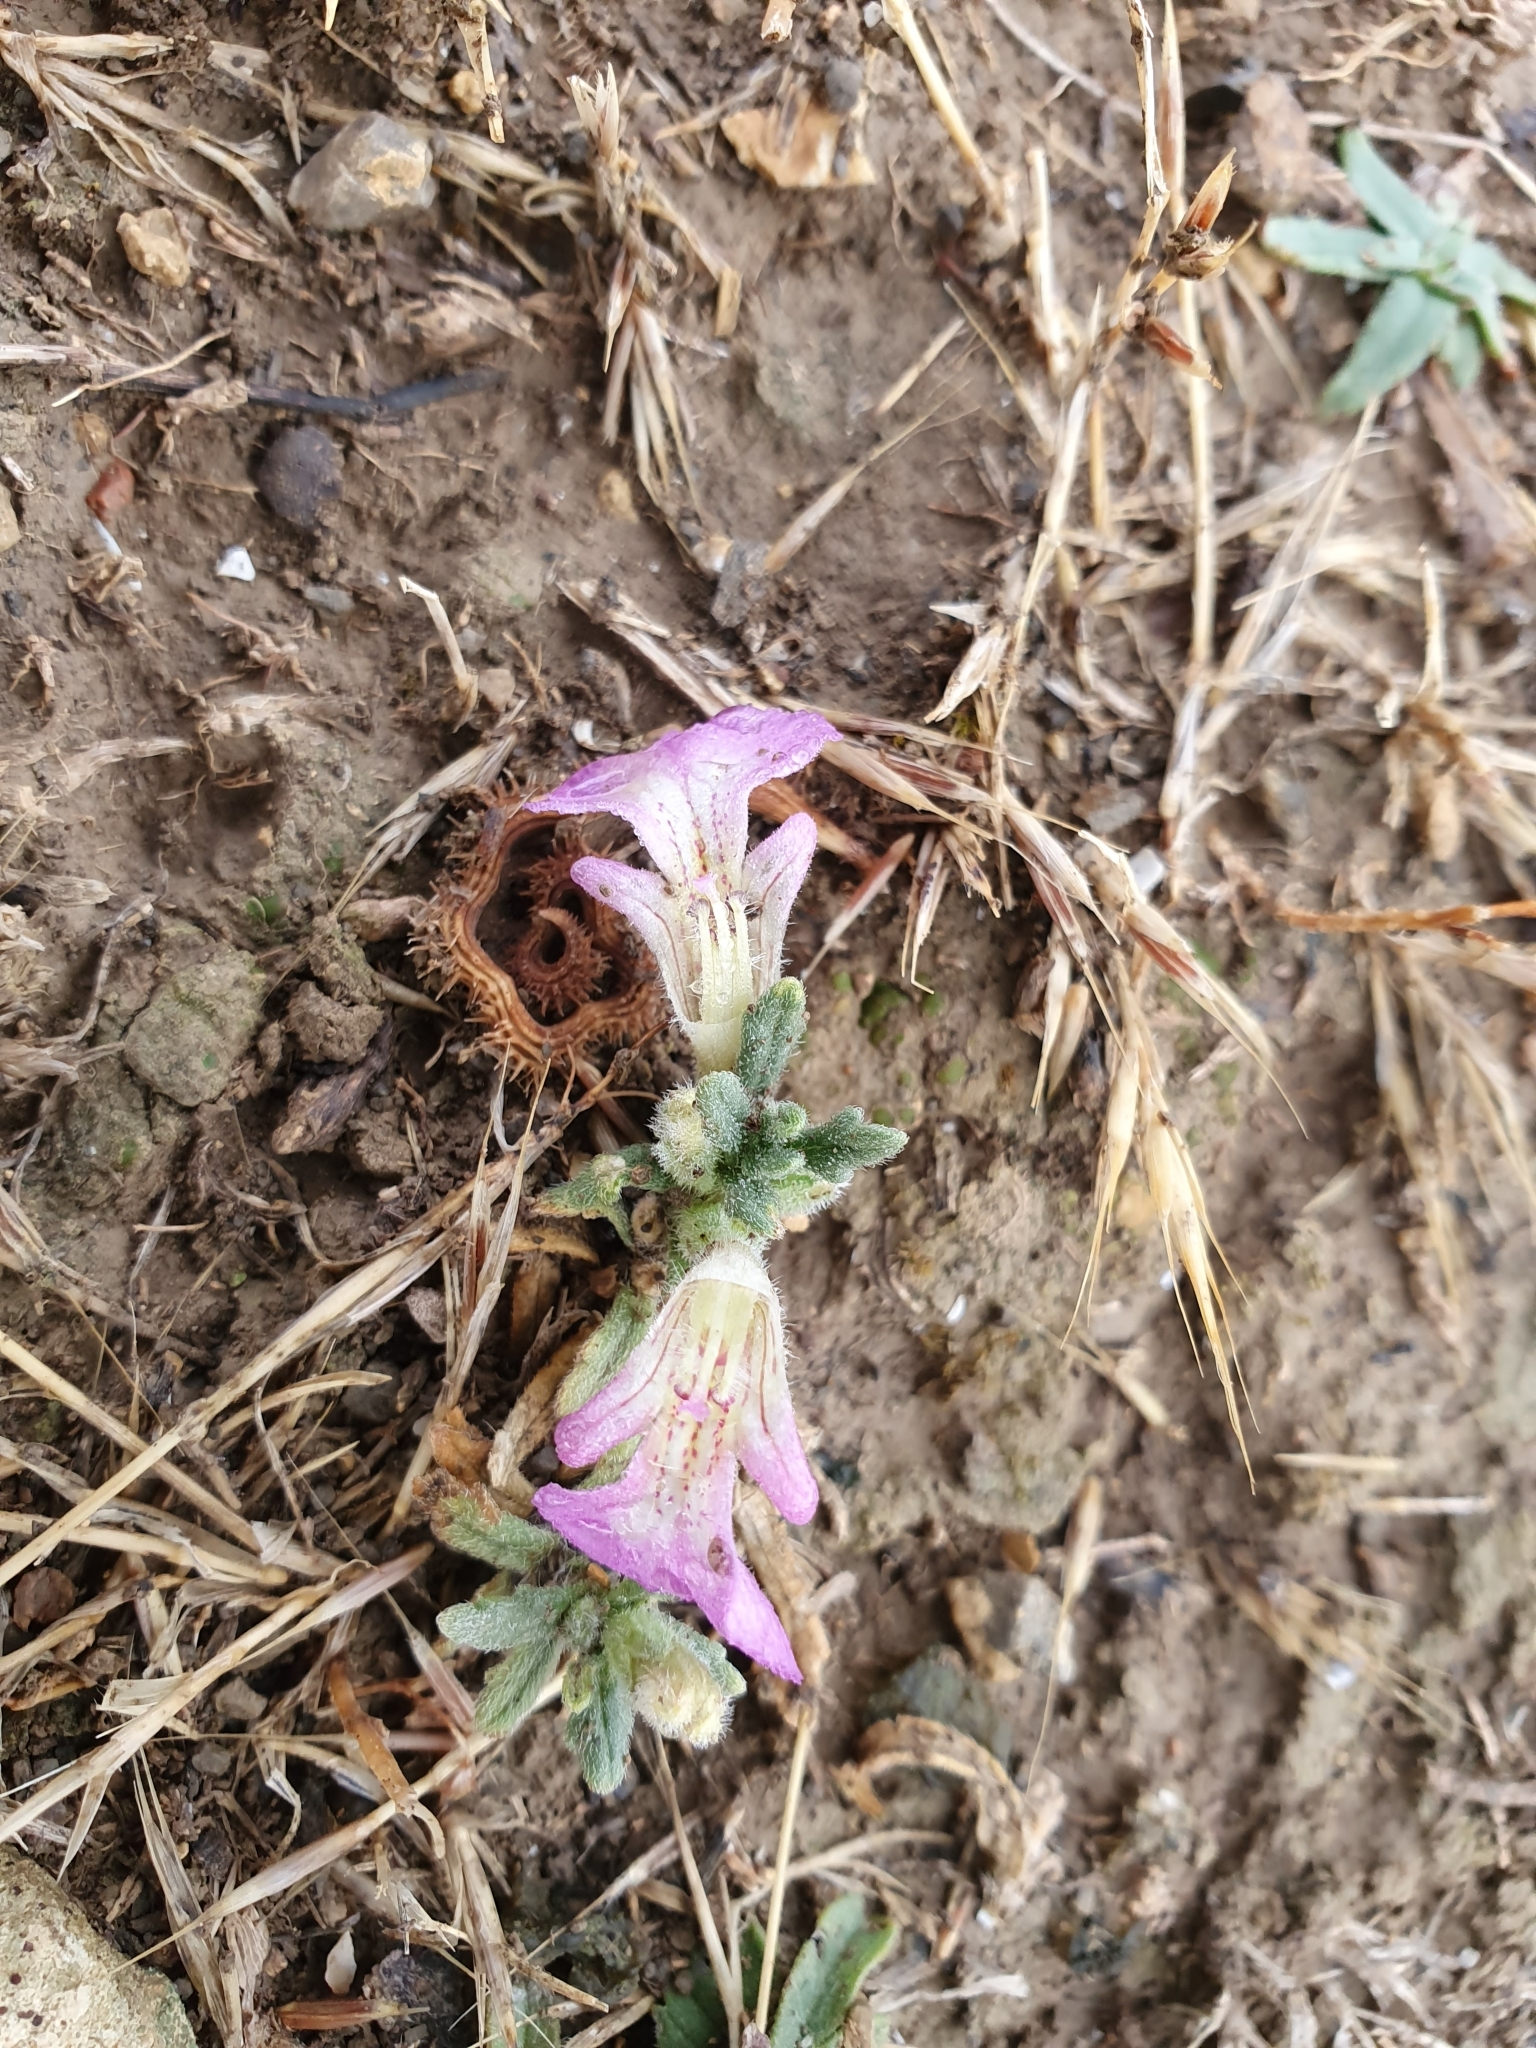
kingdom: Plantae
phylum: Tracheophyta
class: Magnoliopsida
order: Lamiales
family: Lamiaceae
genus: Ajuga
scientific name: Ajuga iva
